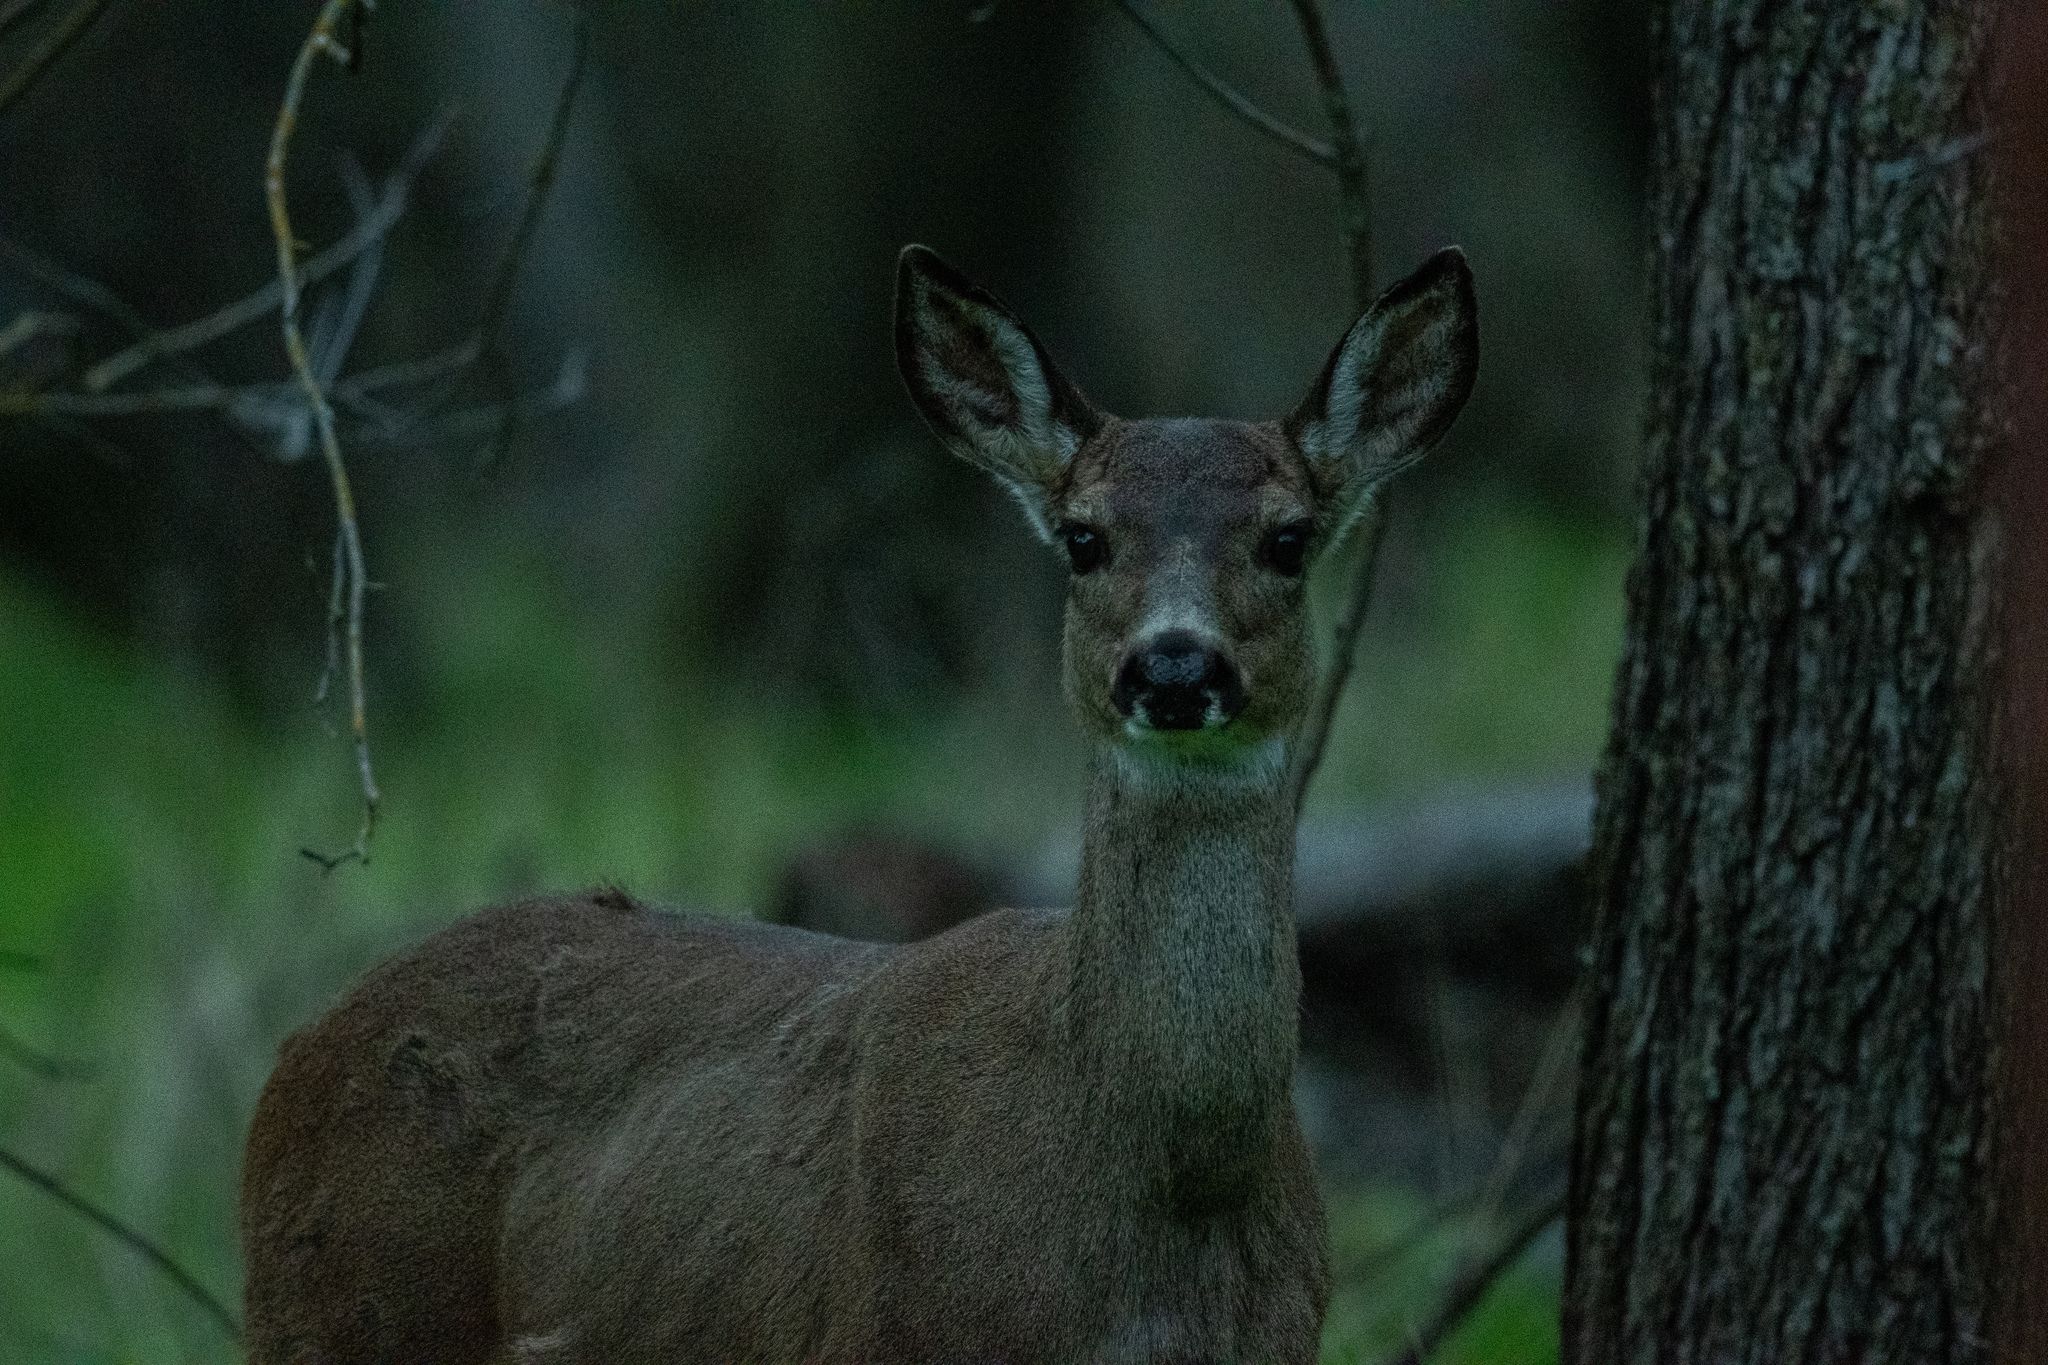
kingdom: Animalia
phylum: Chordata
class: Mammalia
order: Artiodactyla
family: Cervidae
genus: Odocoileus
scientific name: Odocoileus hemionus
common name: Mule deer
